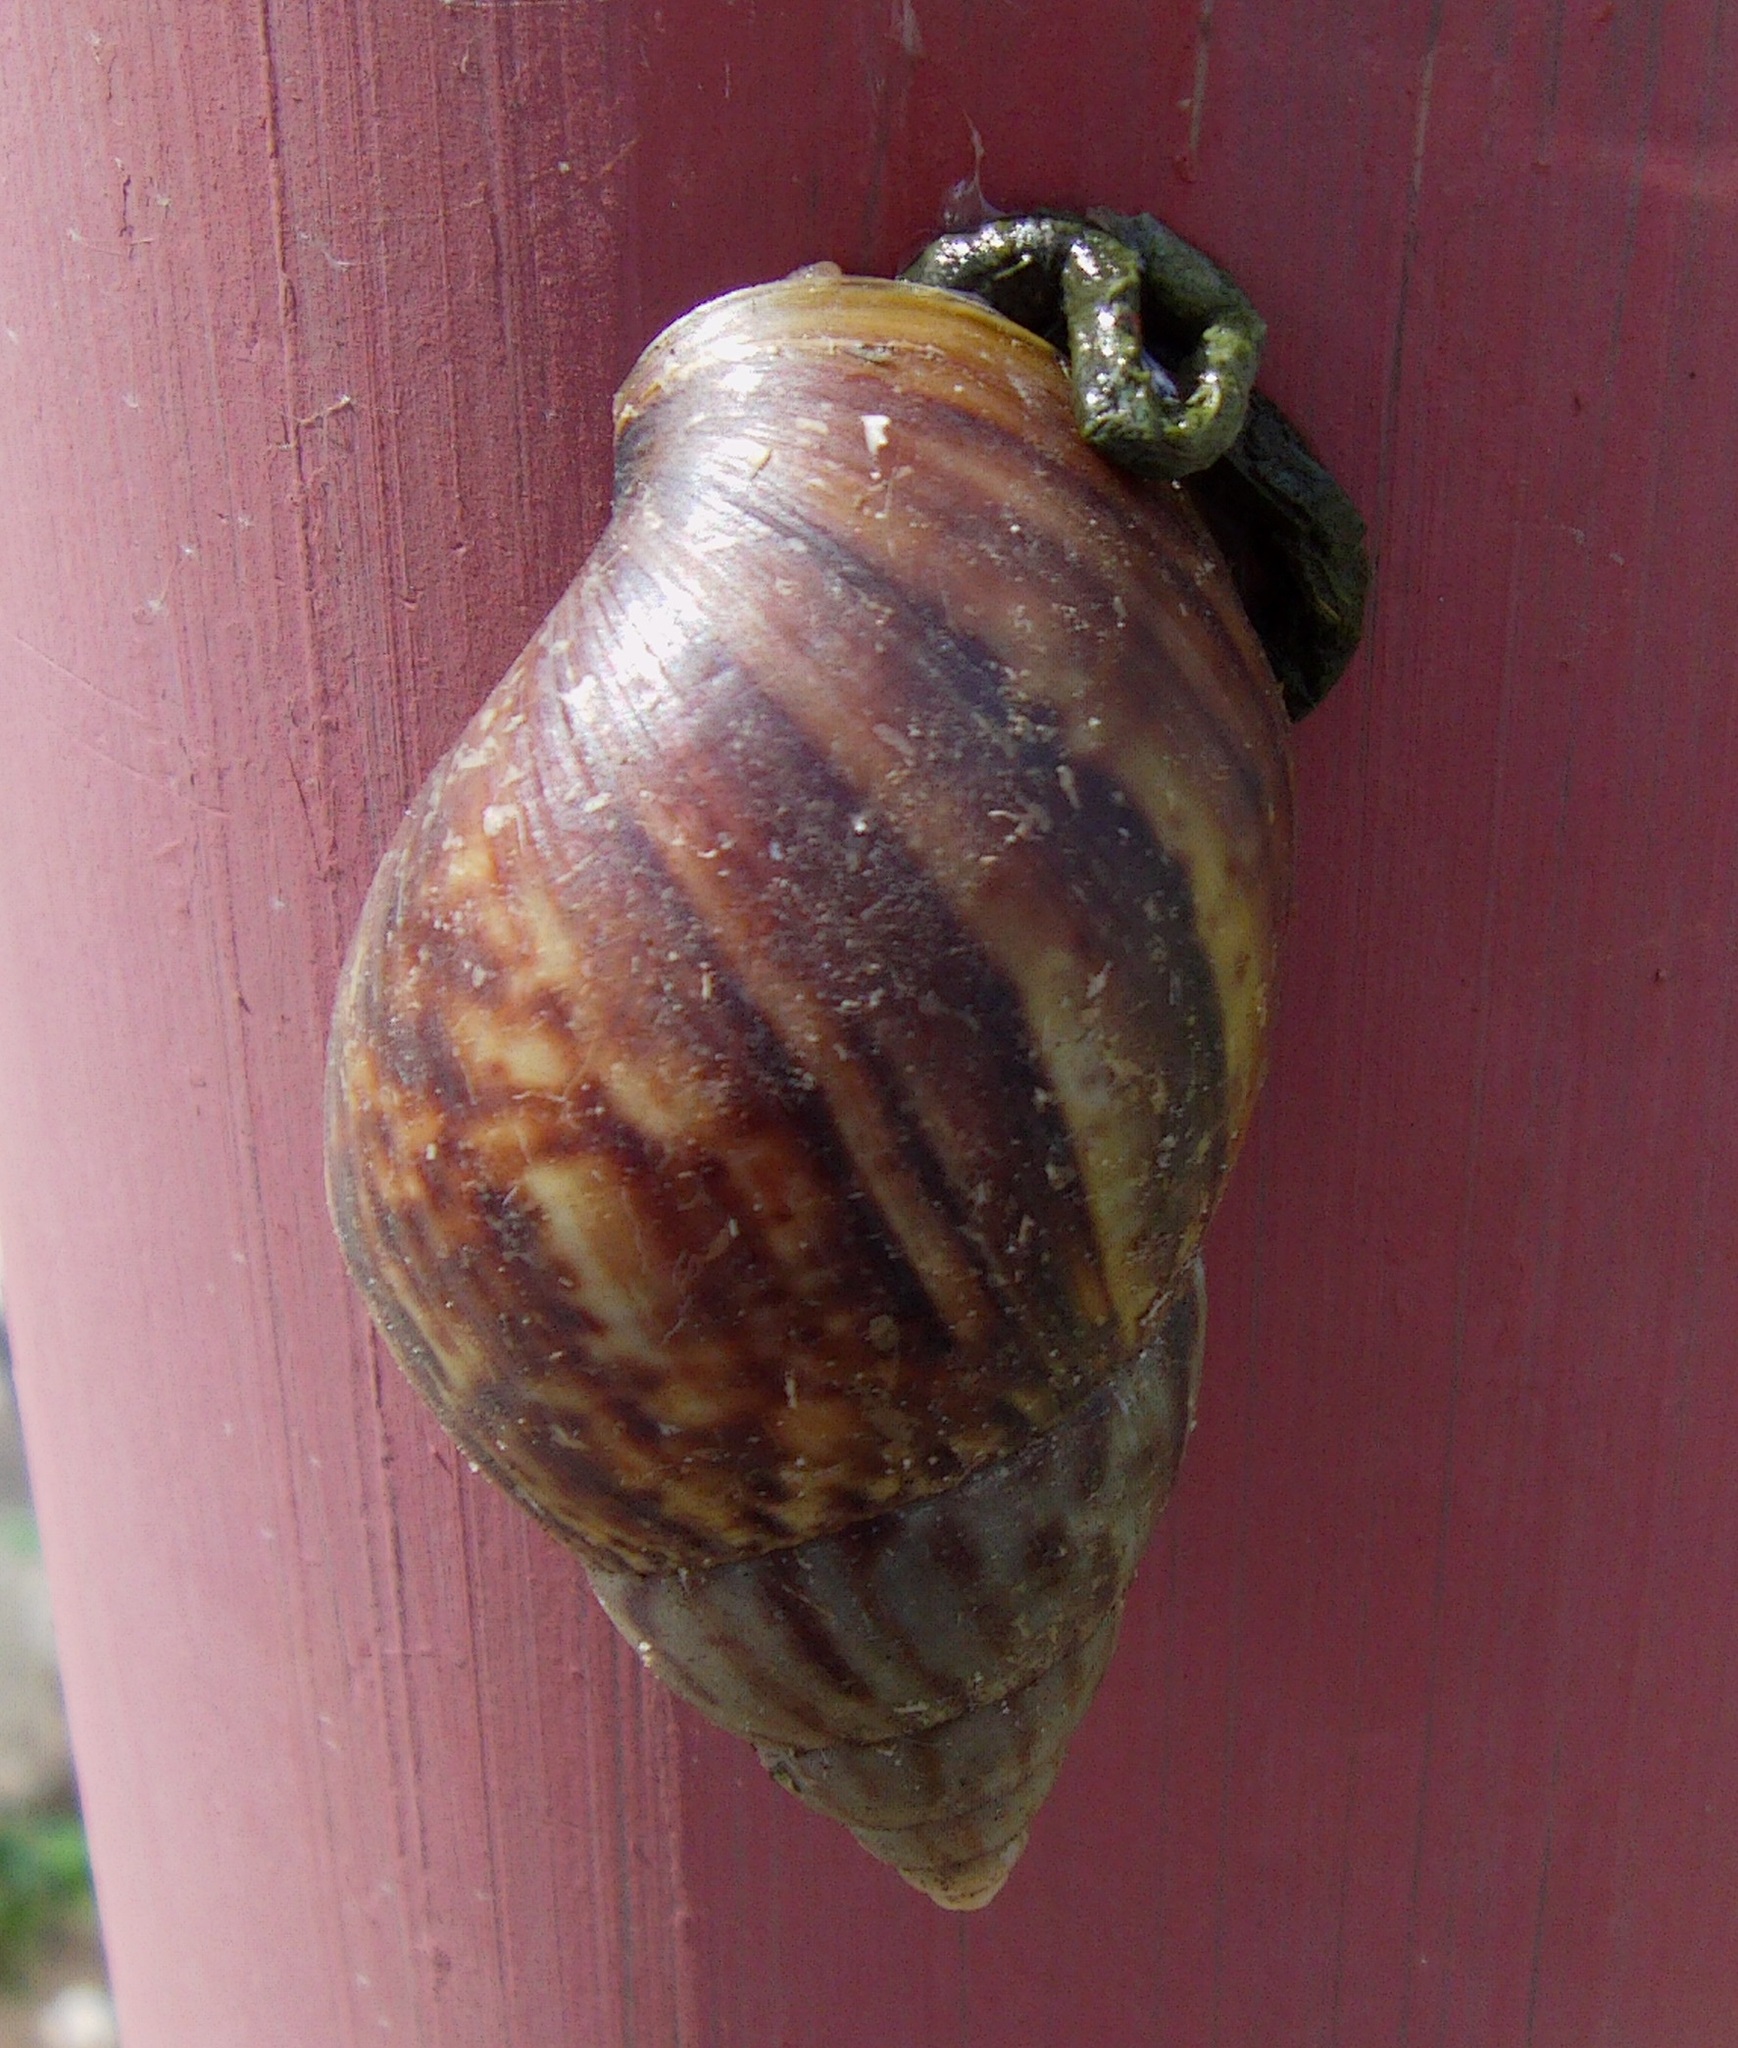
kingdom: Animalia
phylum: Mollusca
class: Gastropoda
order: Stylommatophora
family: Achatinidae
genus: Lissachatina
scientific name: Lissachatina fulica
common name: Giant african snail
